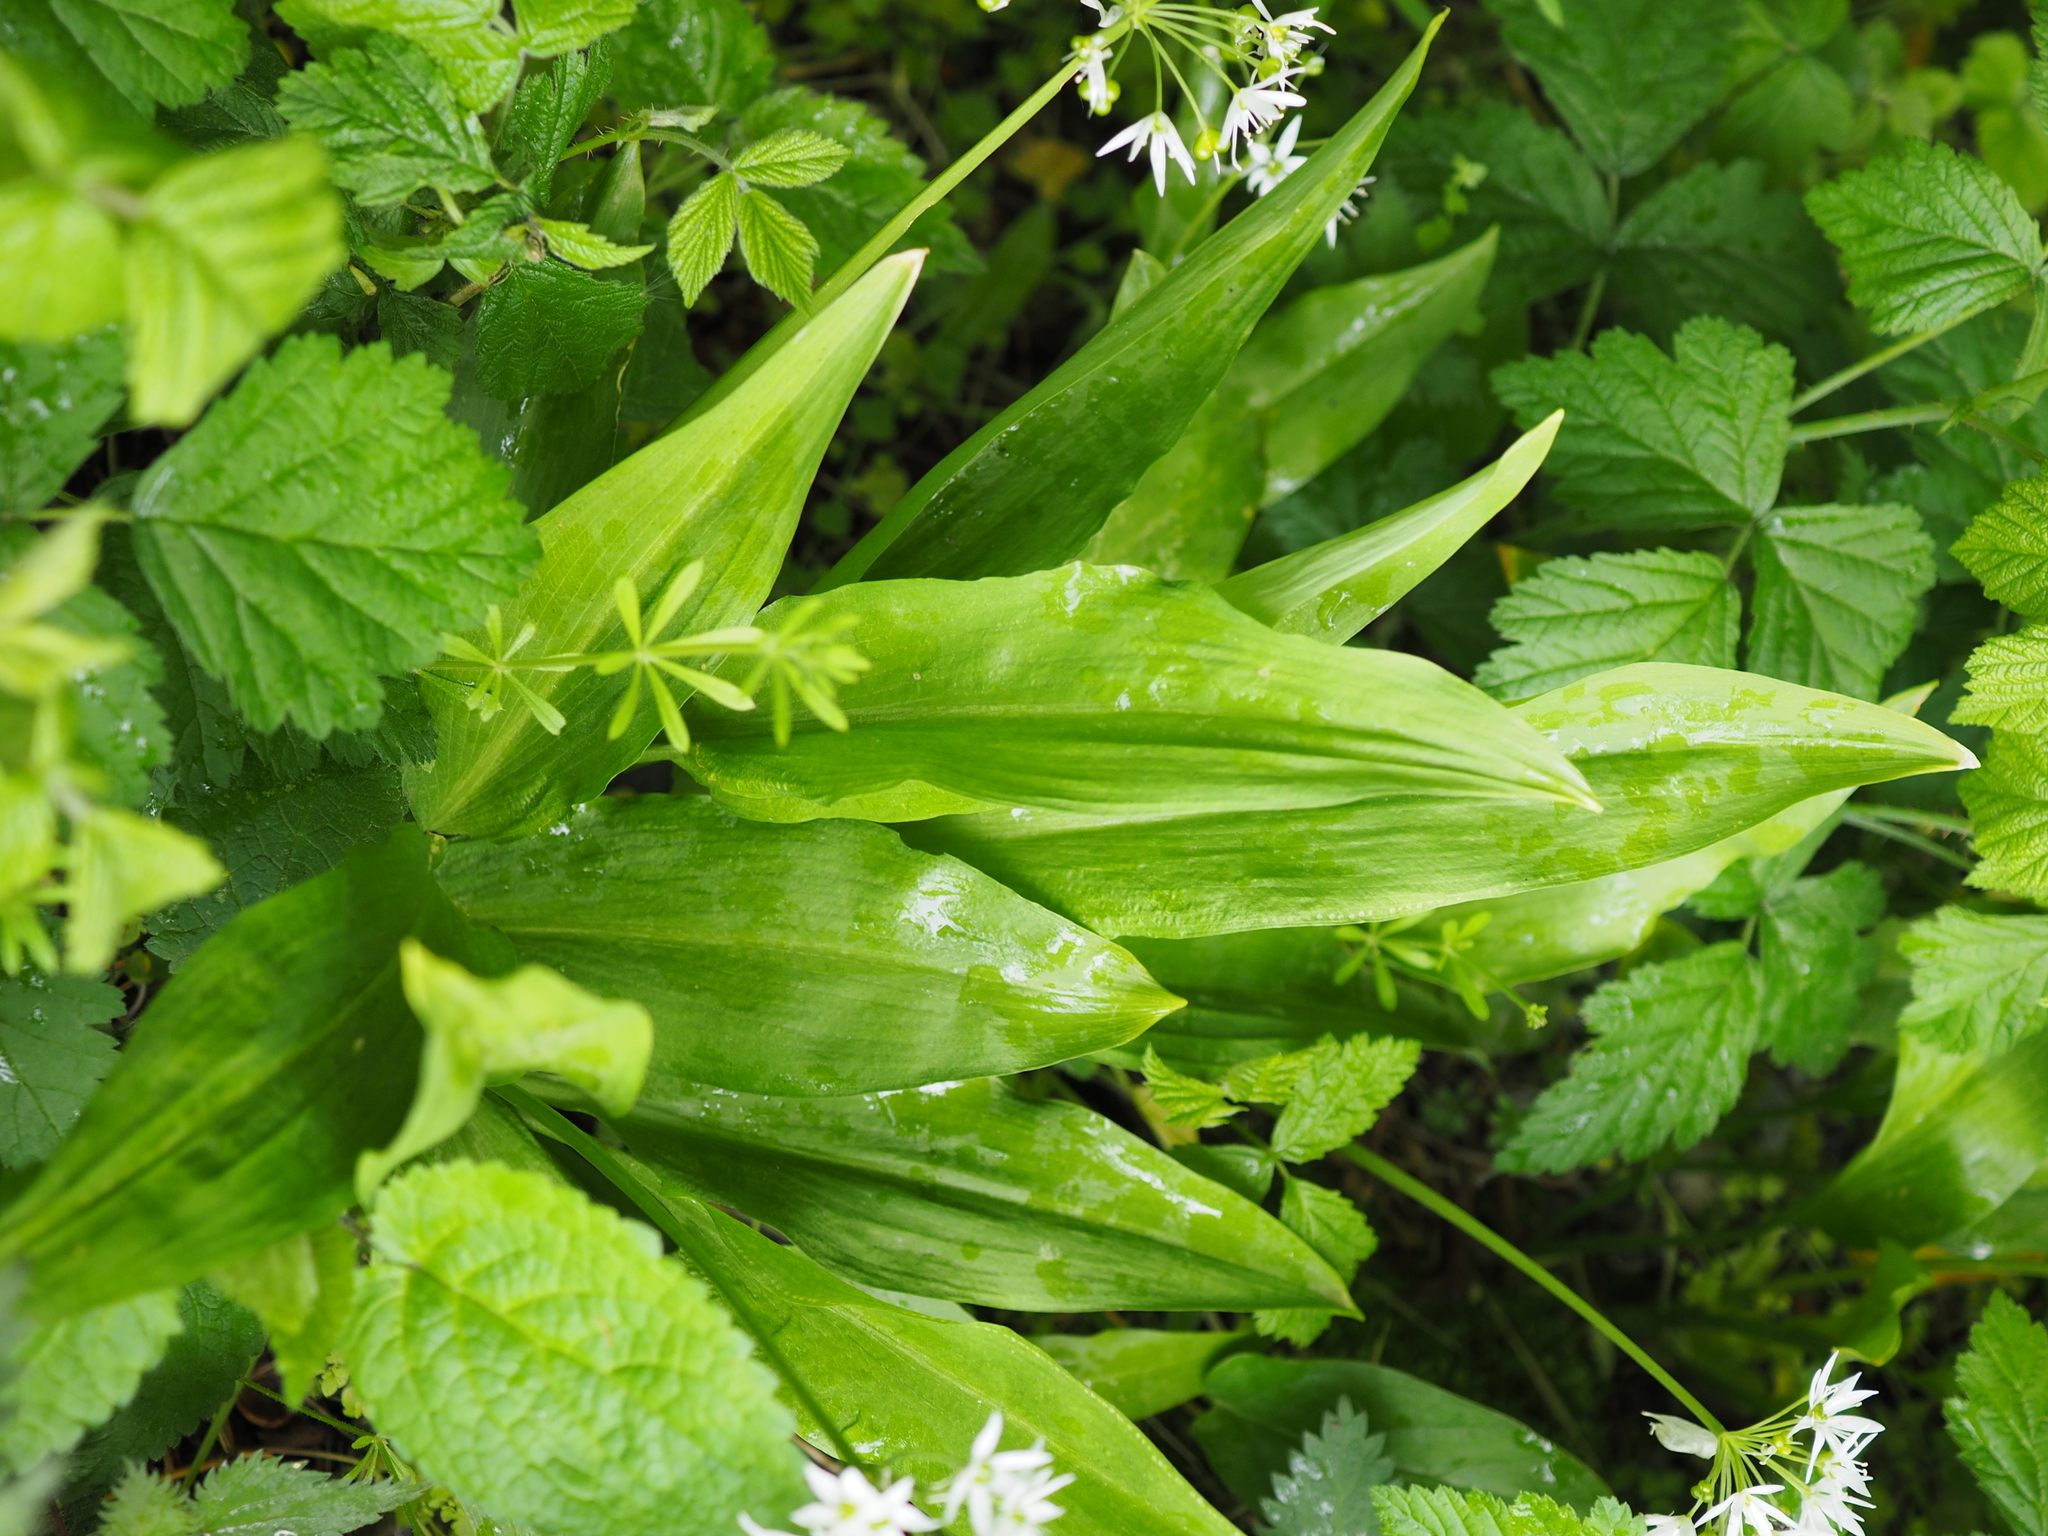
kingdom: Plantae
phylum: Tracheophyta
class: Liliopsida
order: Asparagales
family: Amaryllidaceae
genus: Allium
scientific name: Allium ursinum
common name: Ramsons
